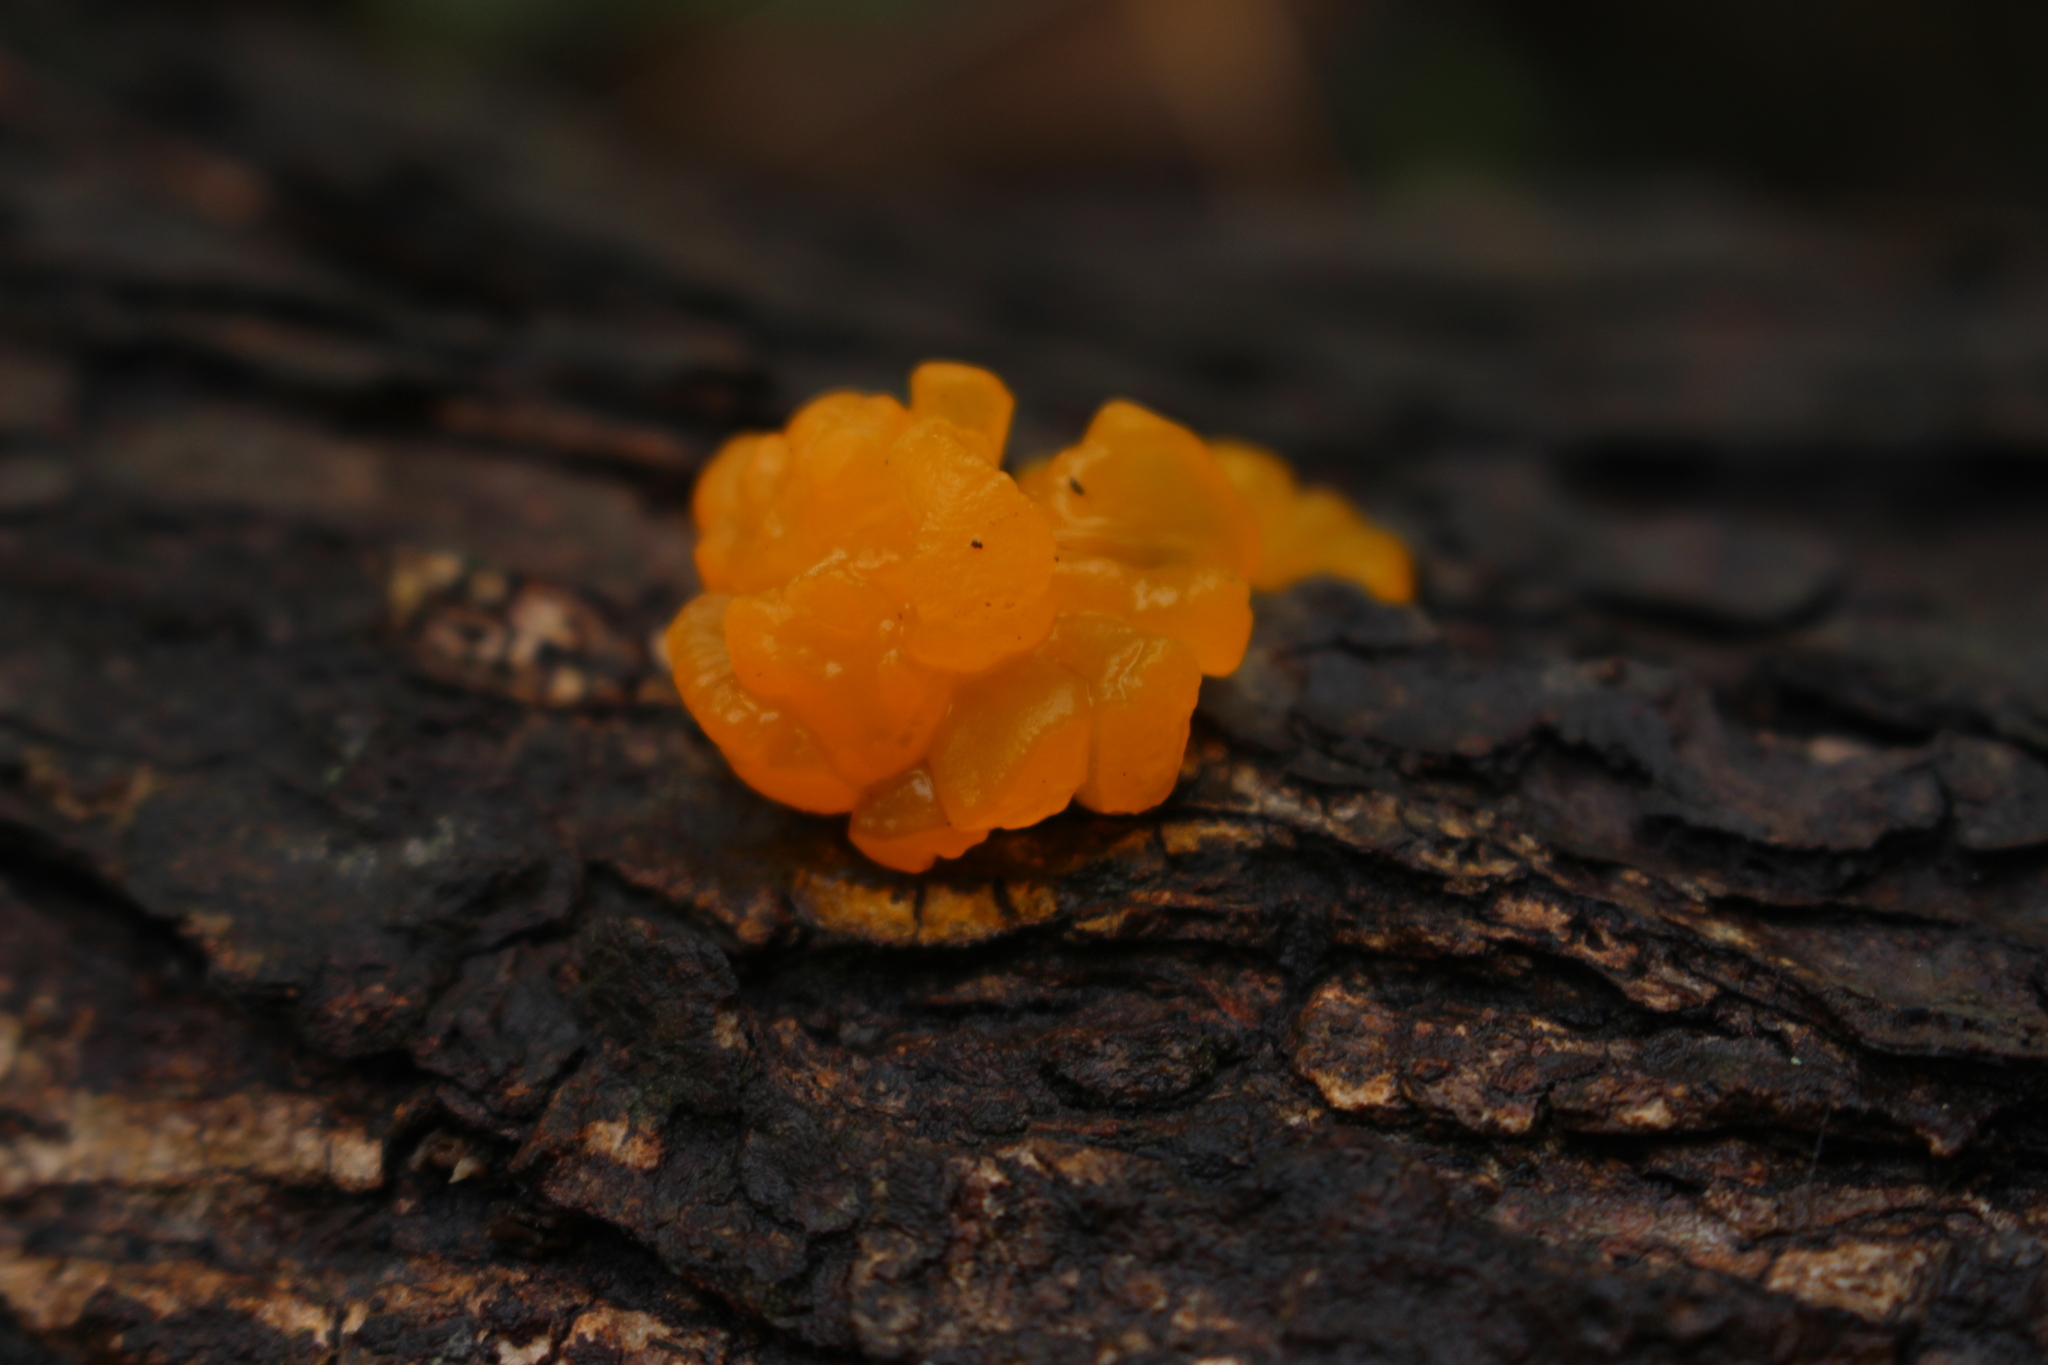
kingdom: Fungi
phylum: Basidiomycota
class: Dacrymycetes
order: Dacrymycetales
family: Dacrymycetaceae
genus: Dacrymyces
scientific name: Dacrymyces chrysospermus
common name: Orange jelly spot
